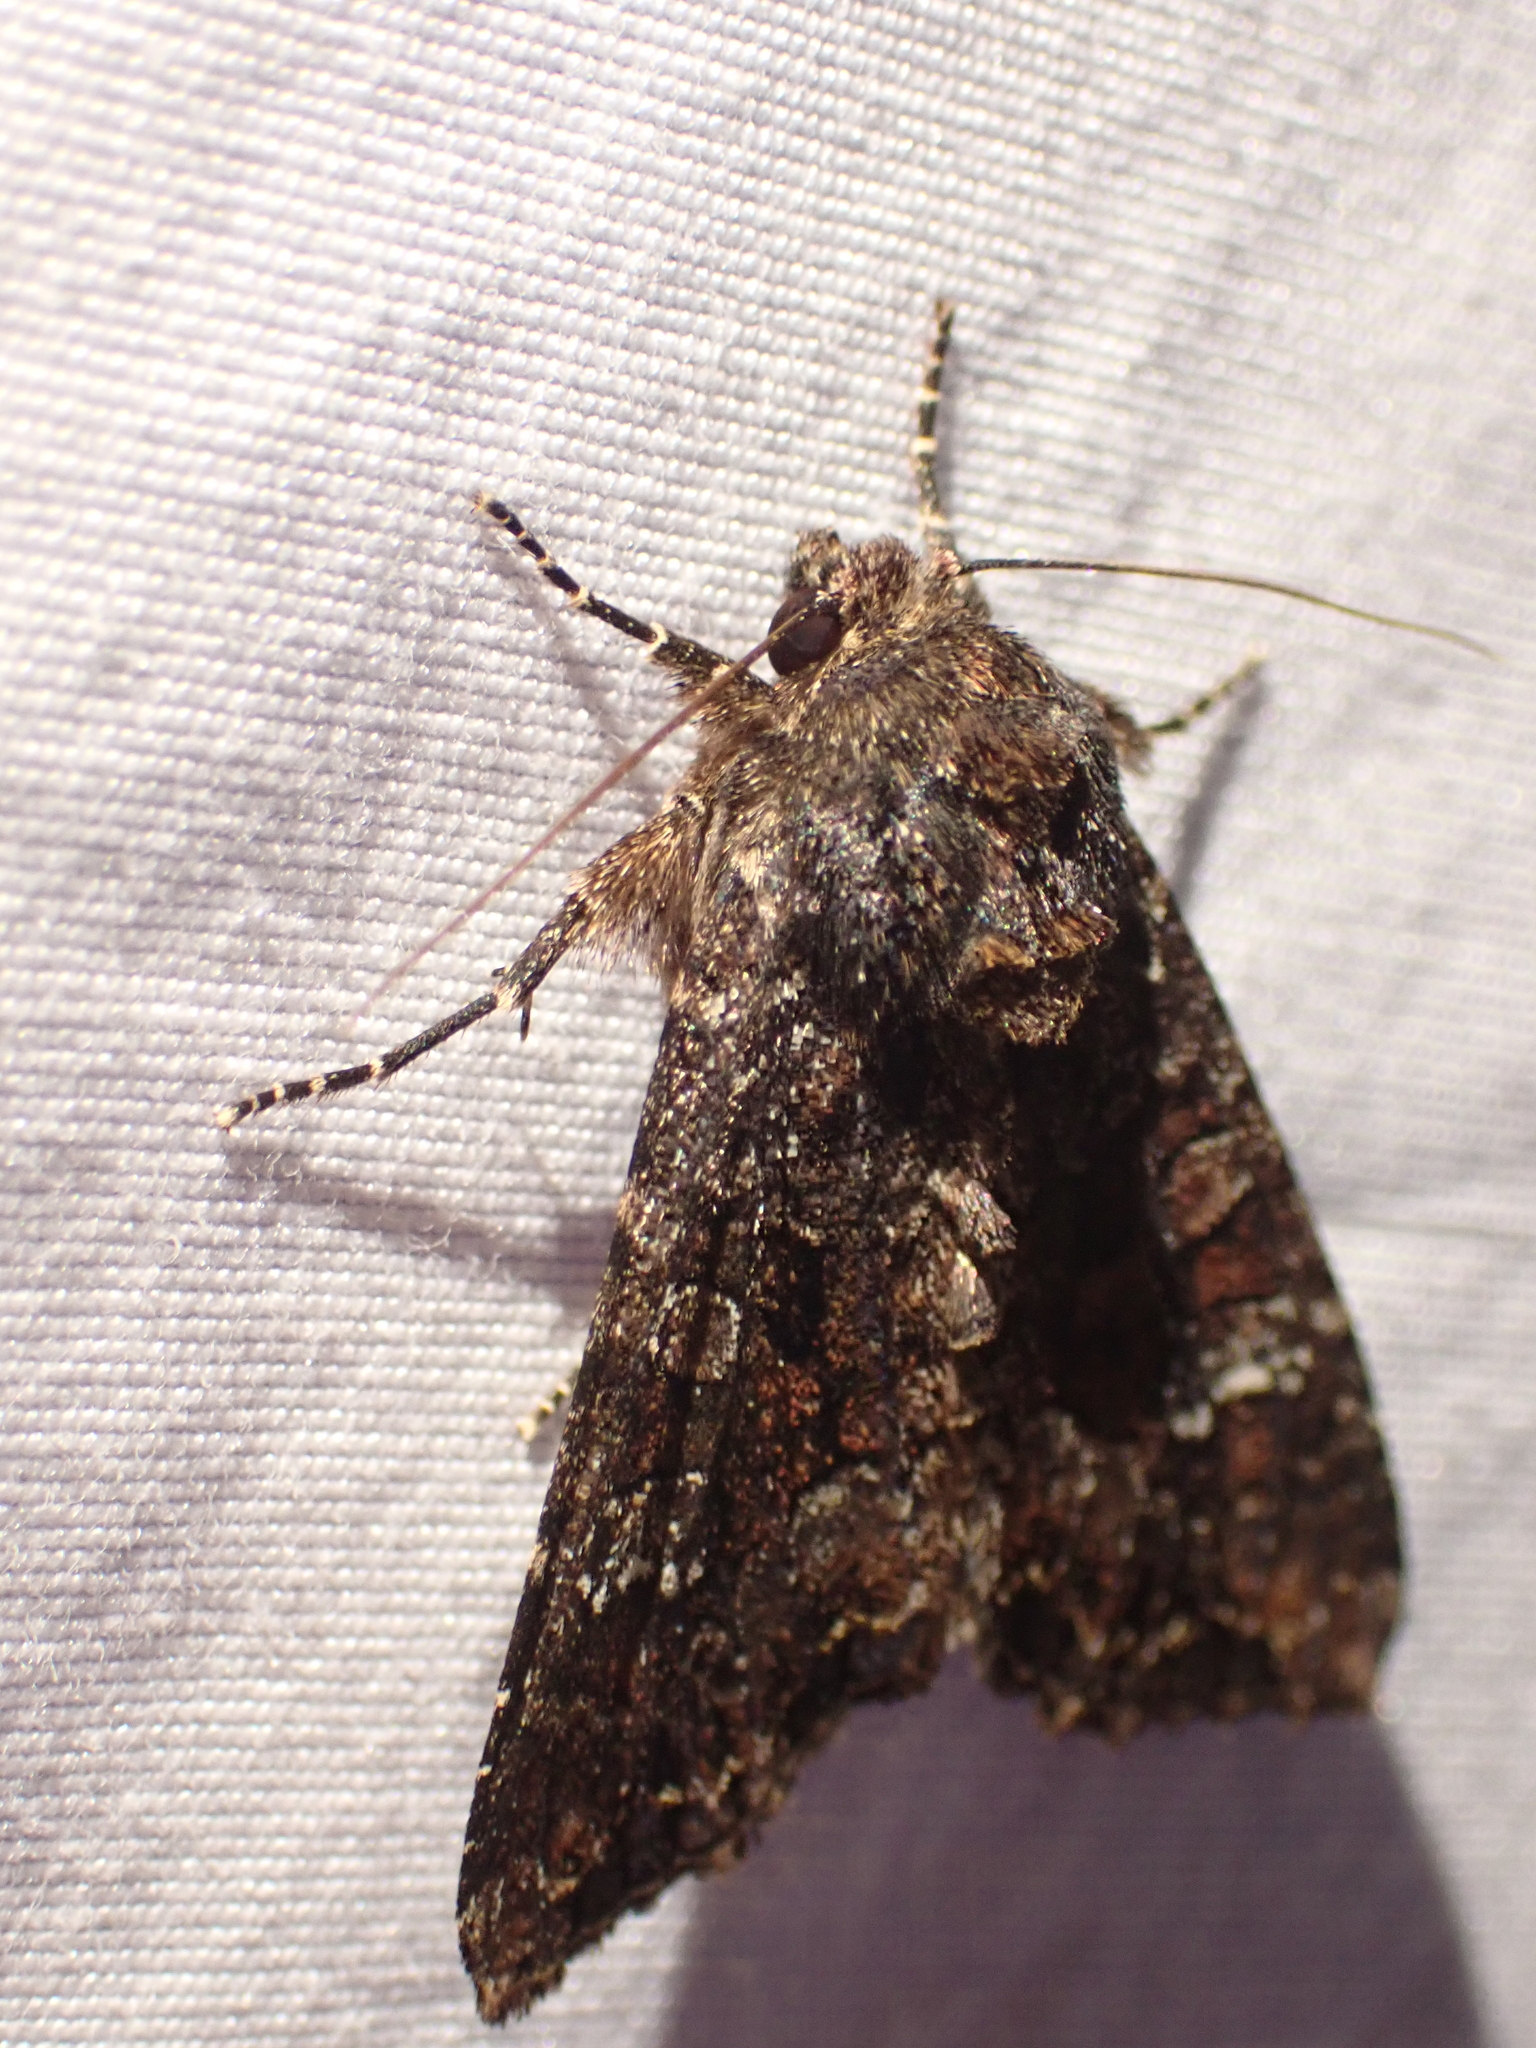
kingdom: Animalia
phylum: Arthropoda
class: Insecta
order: Lepidoptera
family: Noctuidae
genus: Apamea
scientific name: Apamea amputatrix
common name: Yellow-headed cutworm moth
